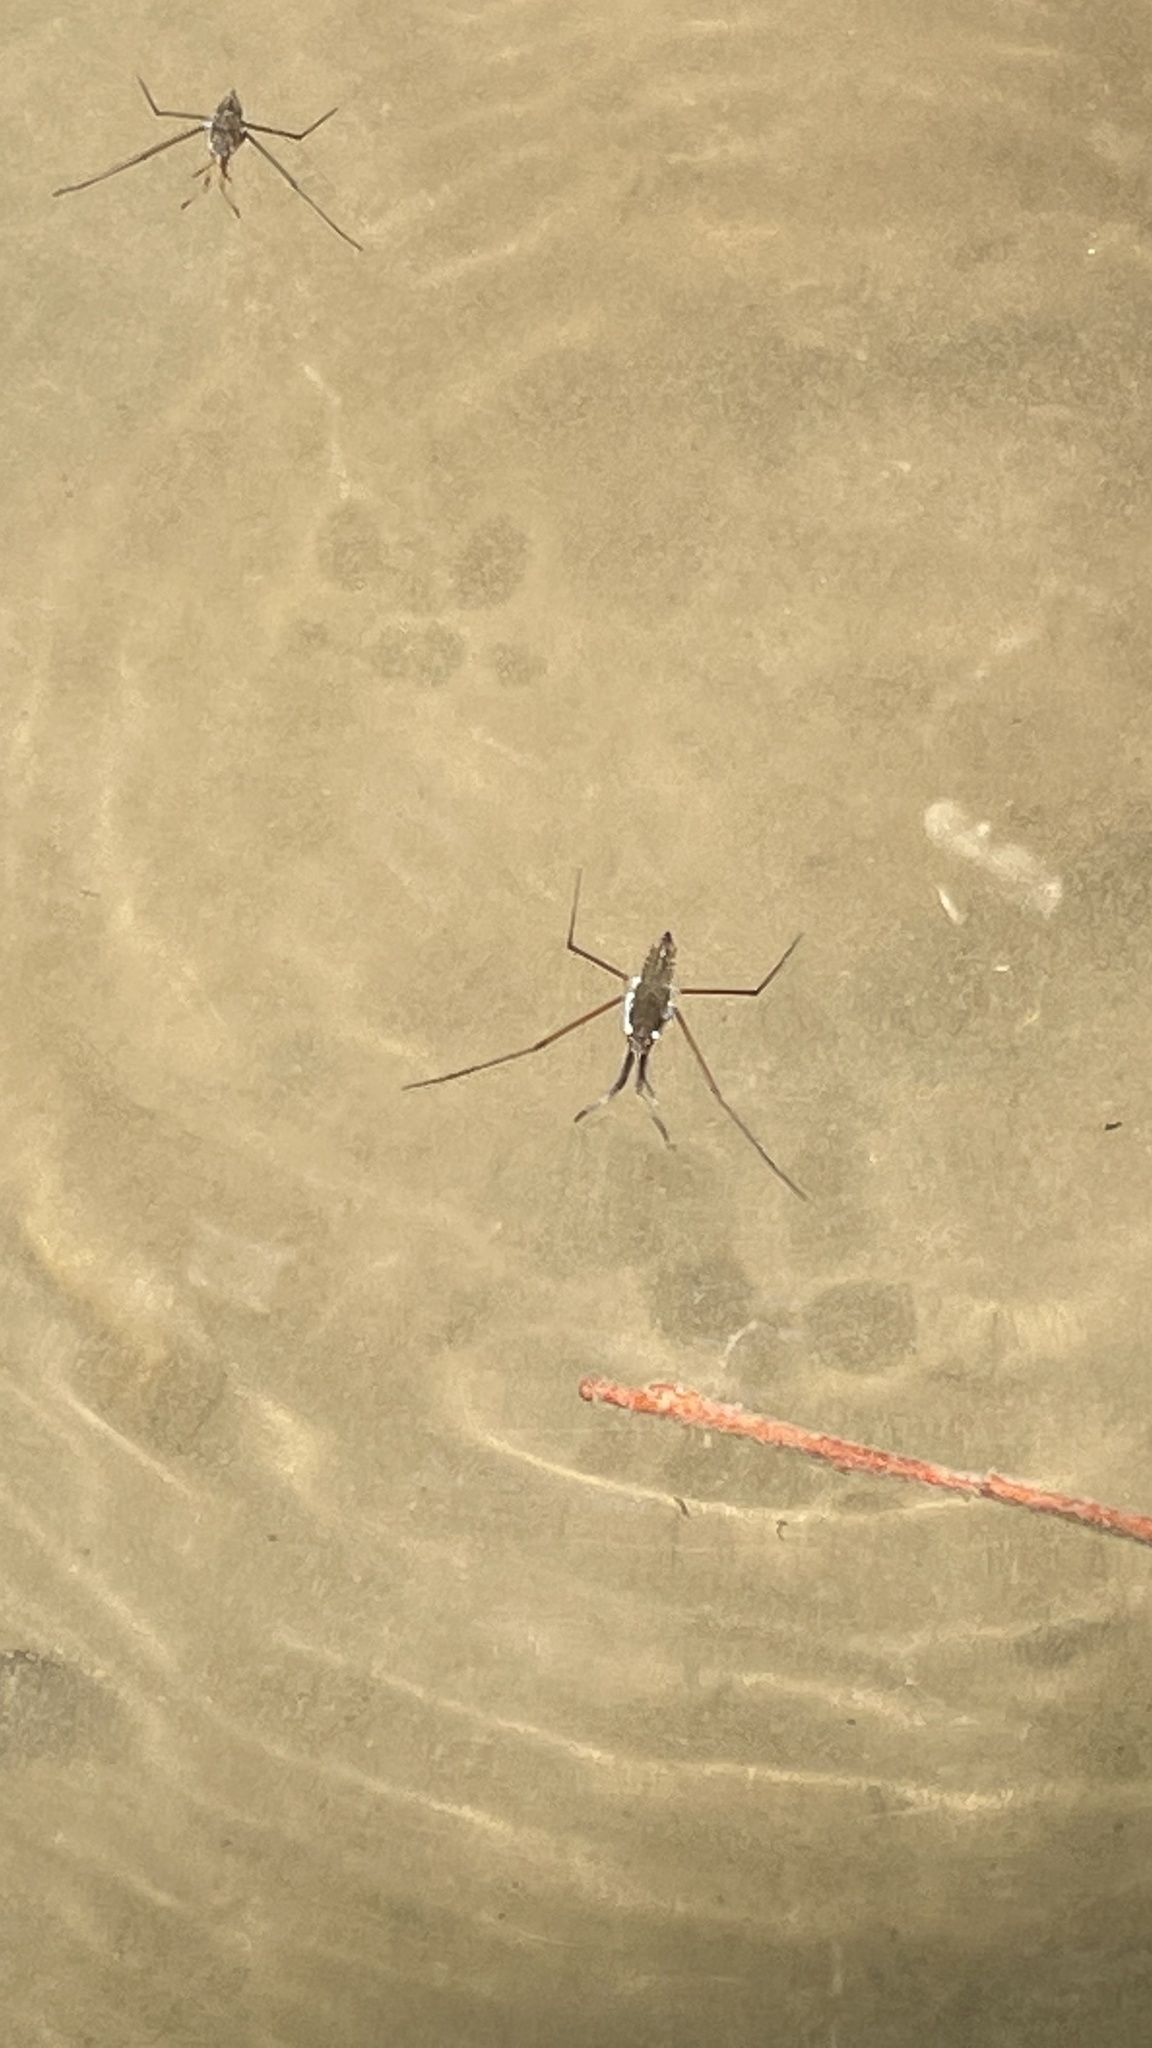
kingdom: Animalia
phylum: Arthropoda
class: Insecta
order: Hemiptera
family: Gerridae
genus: Aquarius
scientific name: Aquarius remigis
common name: Common water strider
